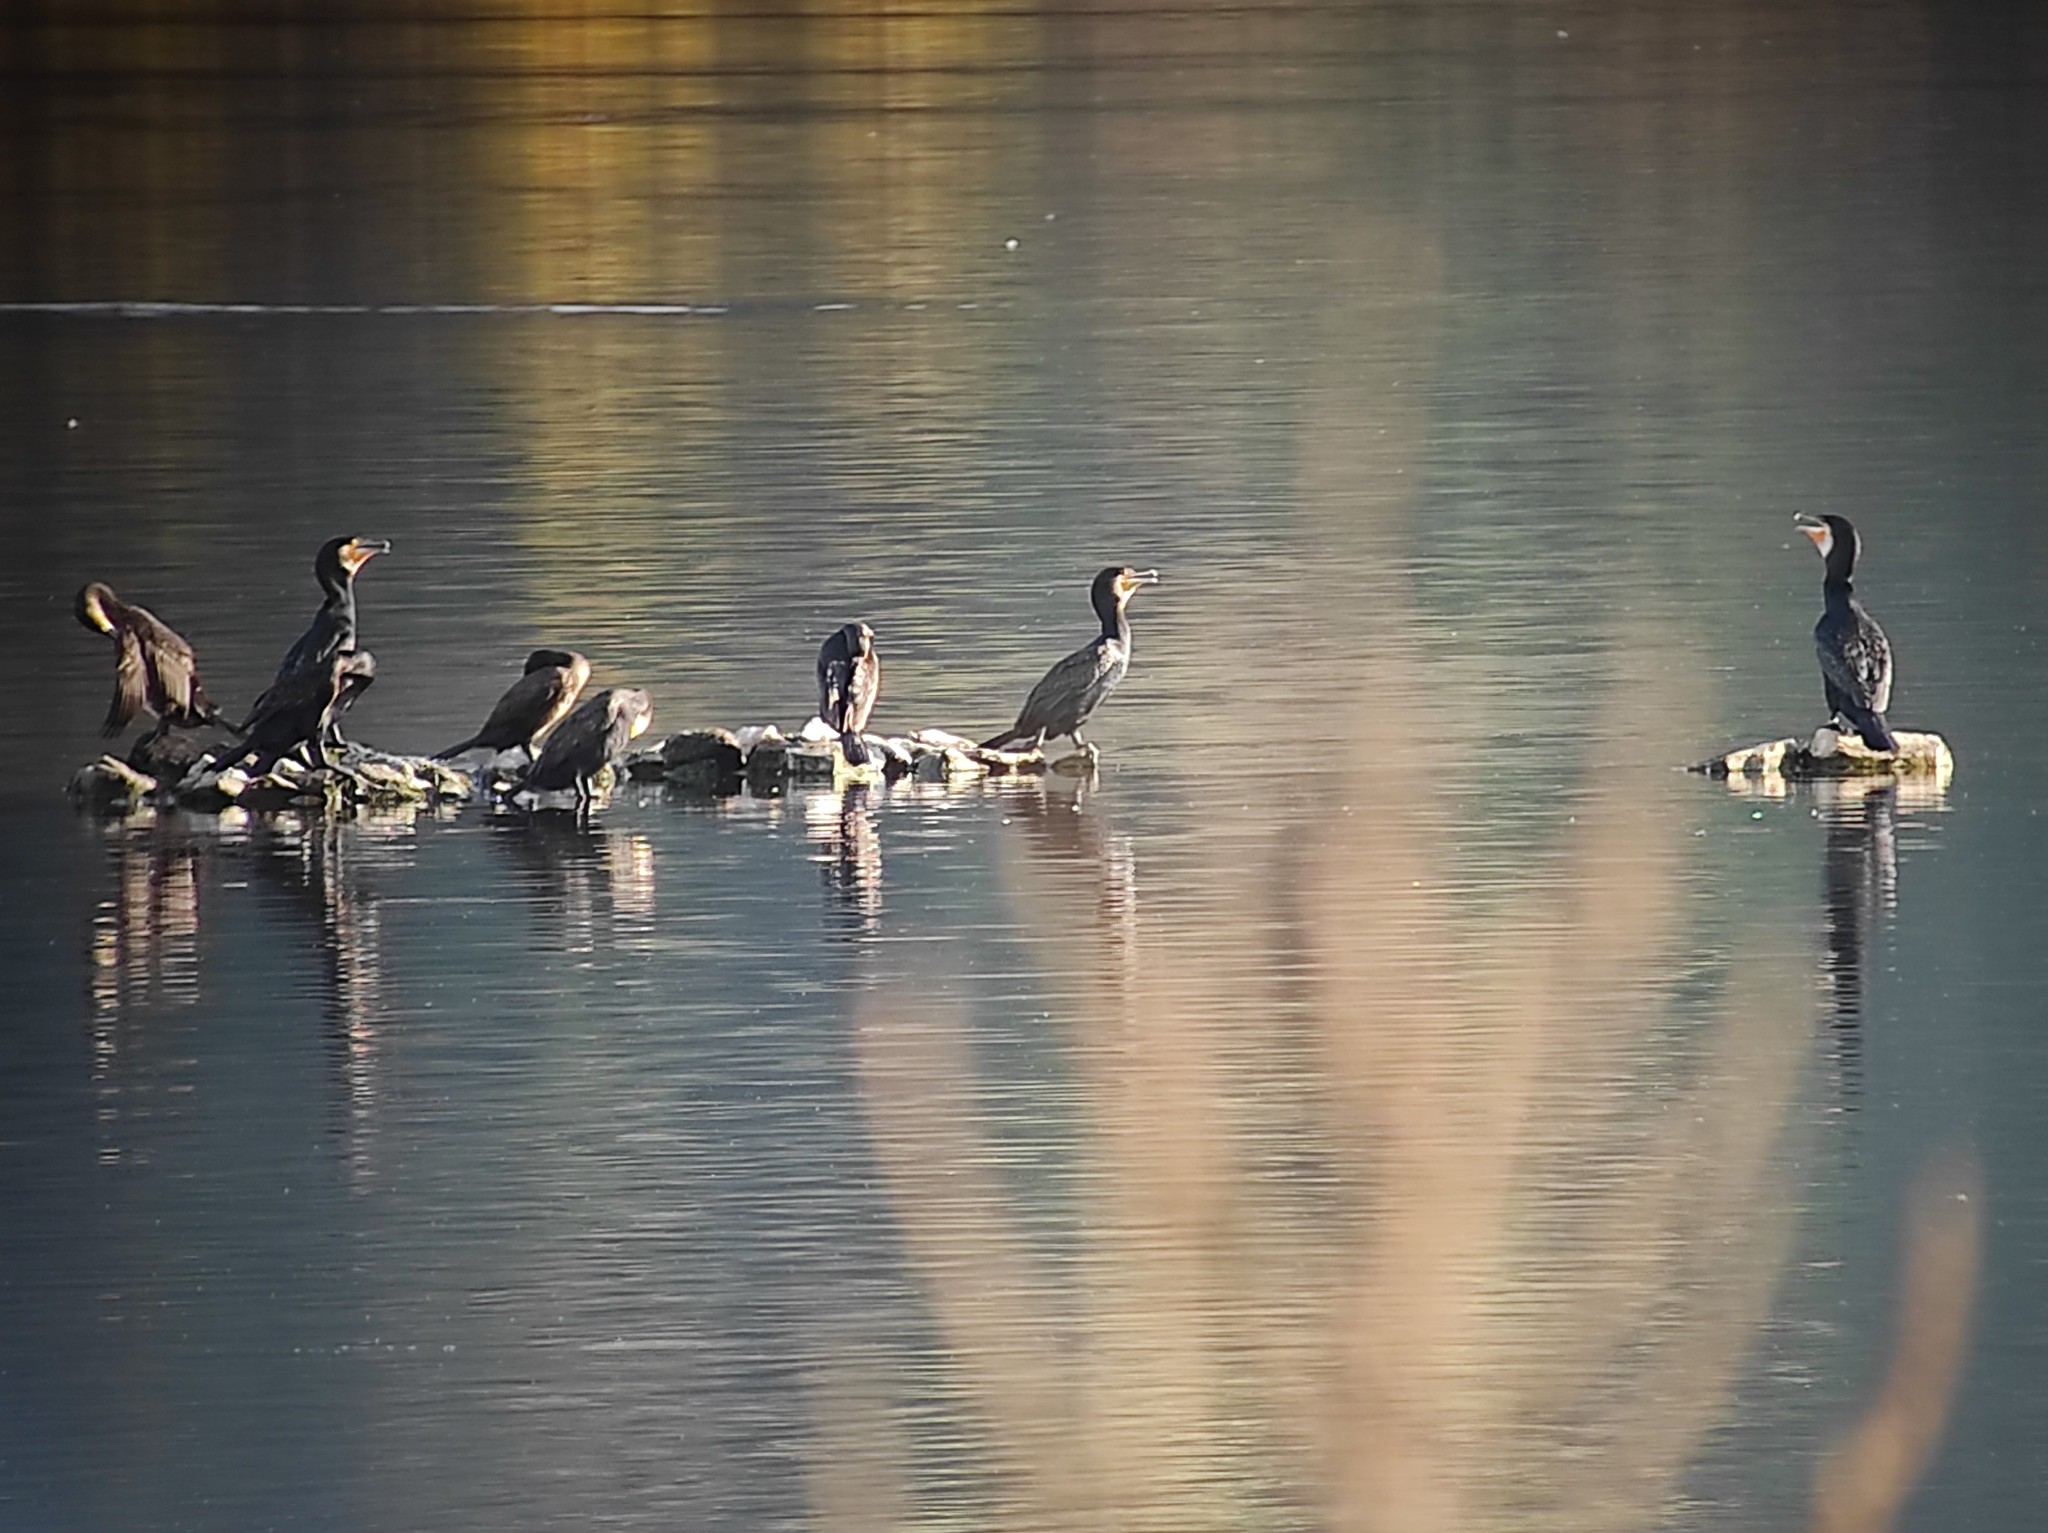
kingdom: Animalia
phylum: Chordata
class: Aves
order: Suliformes
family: Phalacrocoracidae
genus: Phalacrocorax
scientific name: Phalacrocorax carbo
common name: Great cormorant
